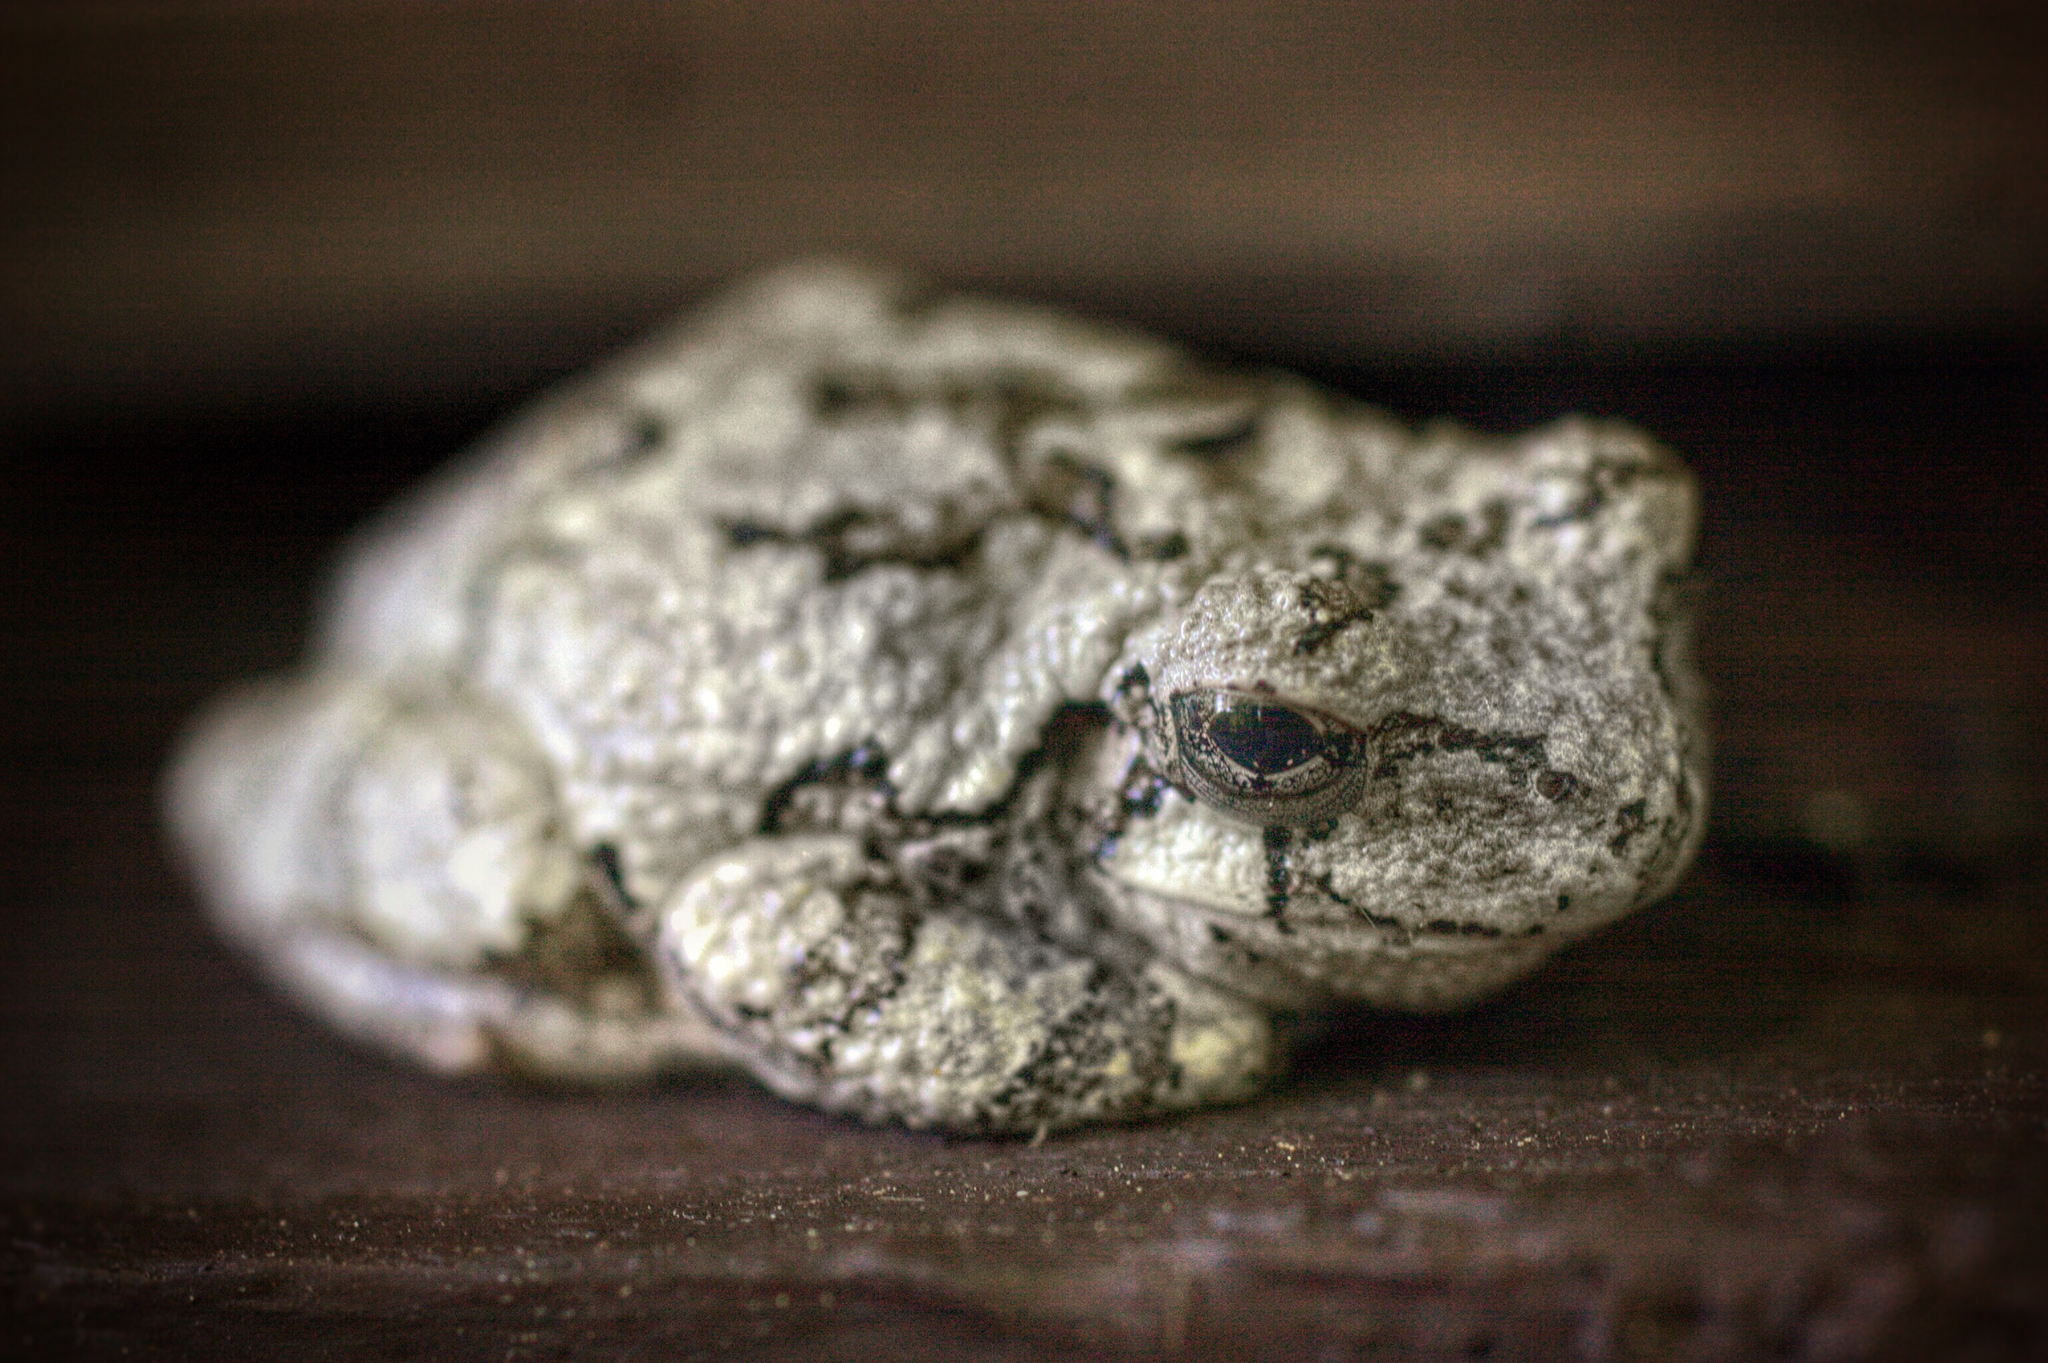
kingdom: Animalia
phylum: Chordata
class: Amphibia
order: Anura
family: Hylidae
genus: Dryophytes
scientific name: Dryophytes versicolor
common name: Gray treefrog
